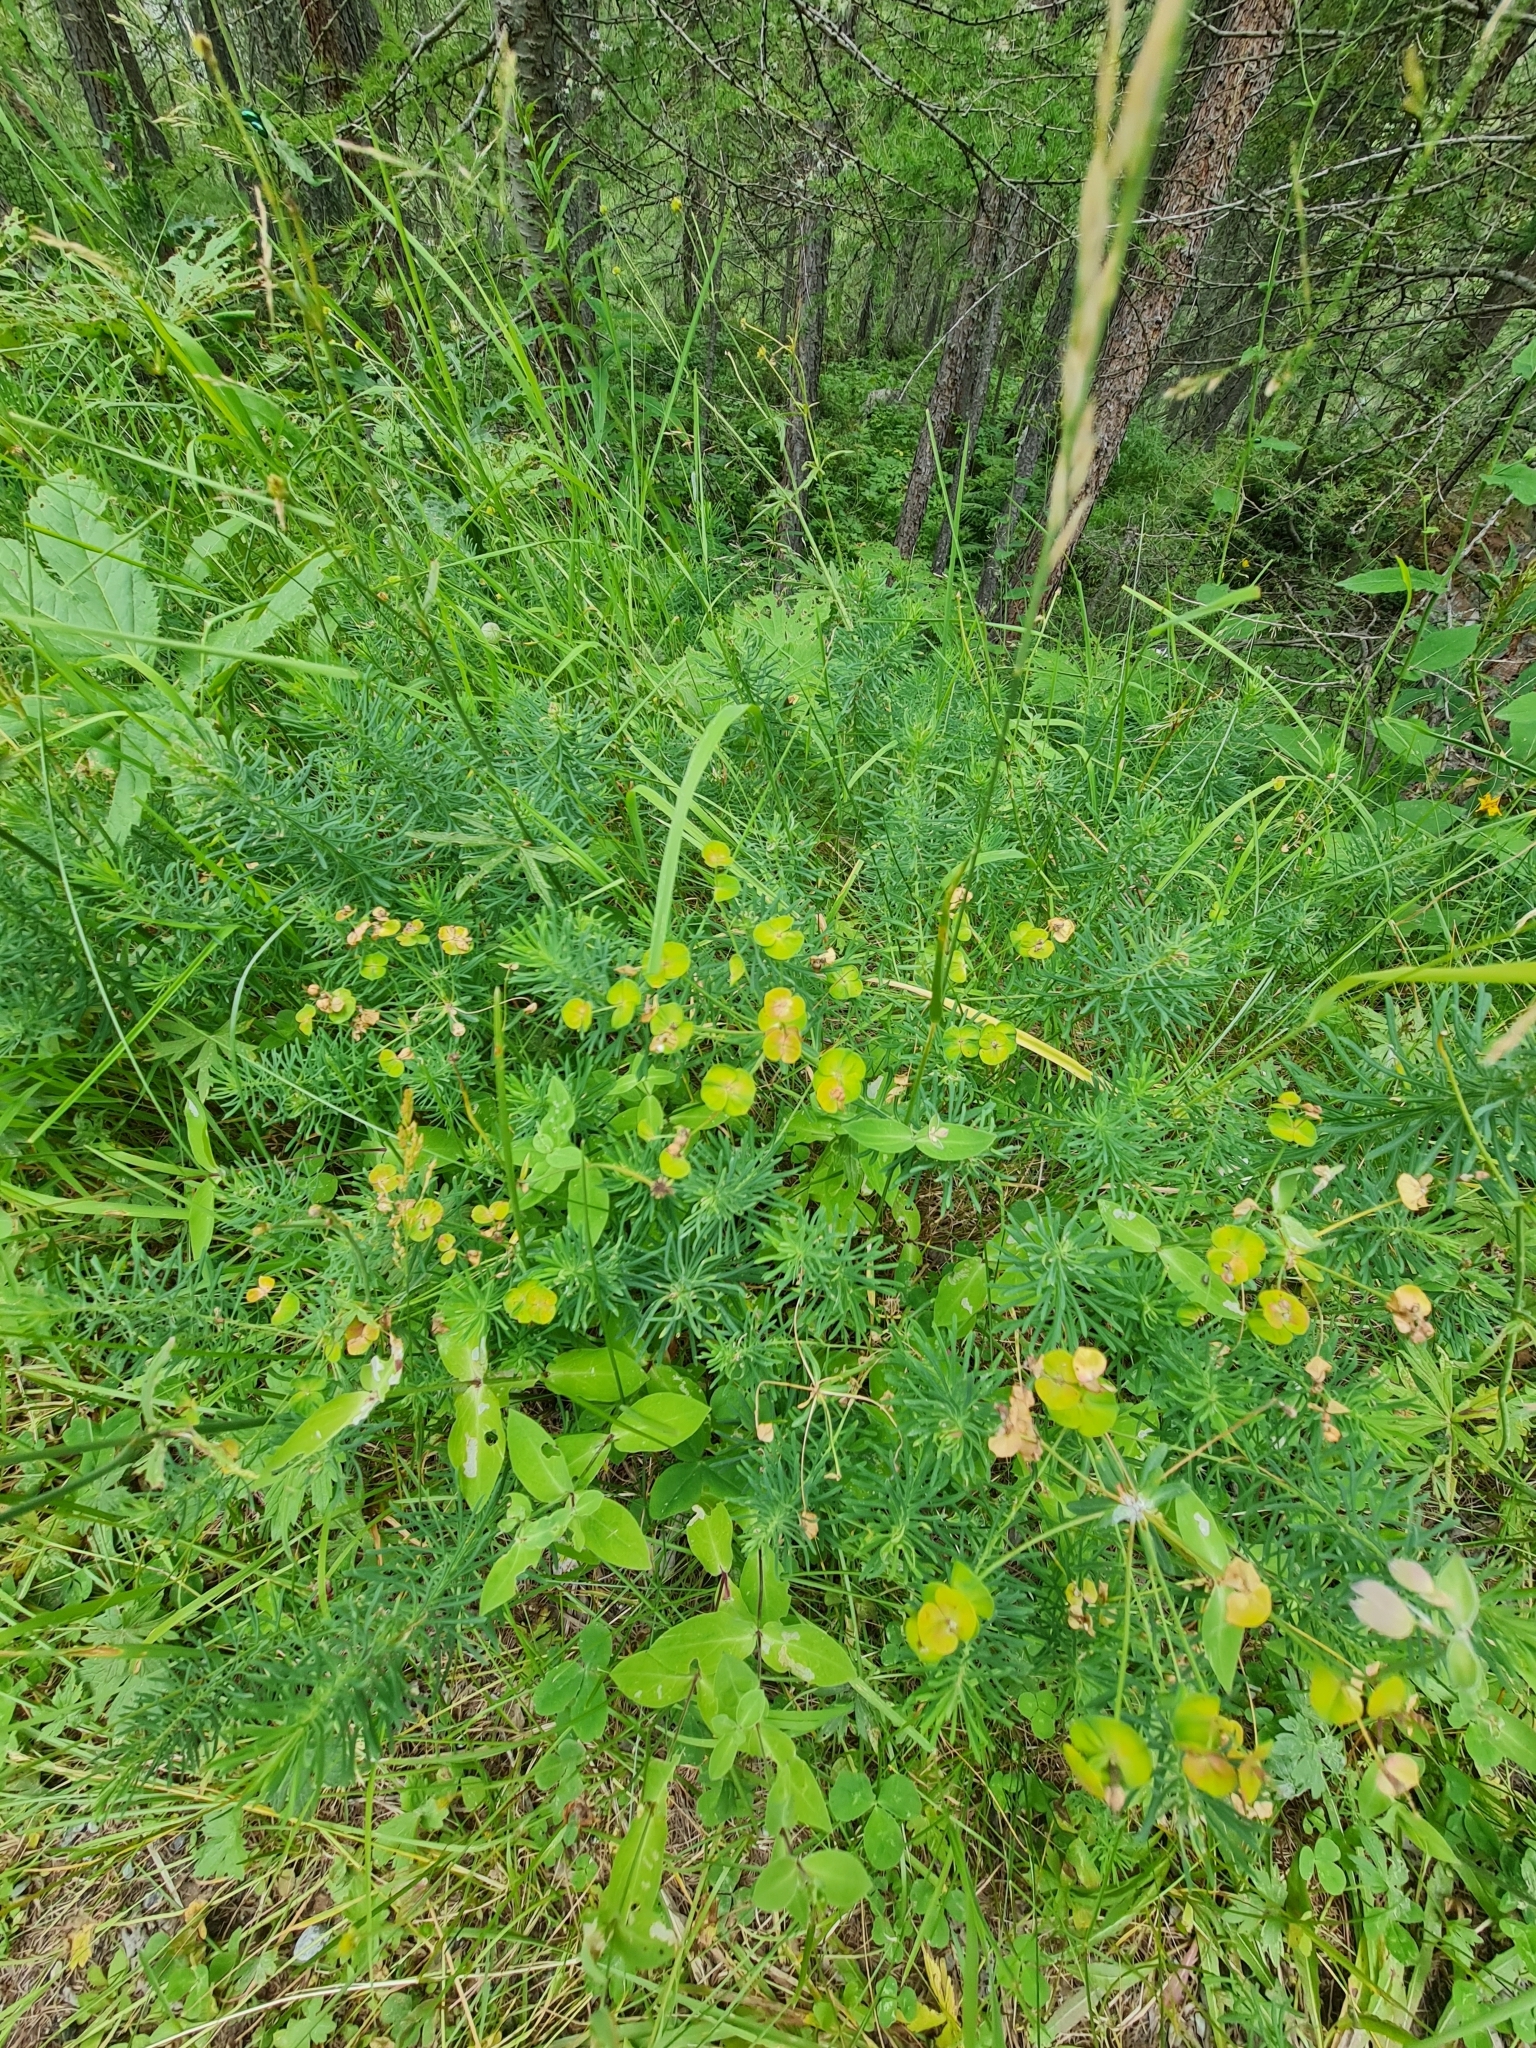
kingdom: Plantae
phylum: Tracheophyta
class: Magnoliopsida
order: Malpighiales
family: Euphorbiaceae
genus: Euphorbia
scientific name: Euphorbia cyparissias
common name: Cypress spurge
